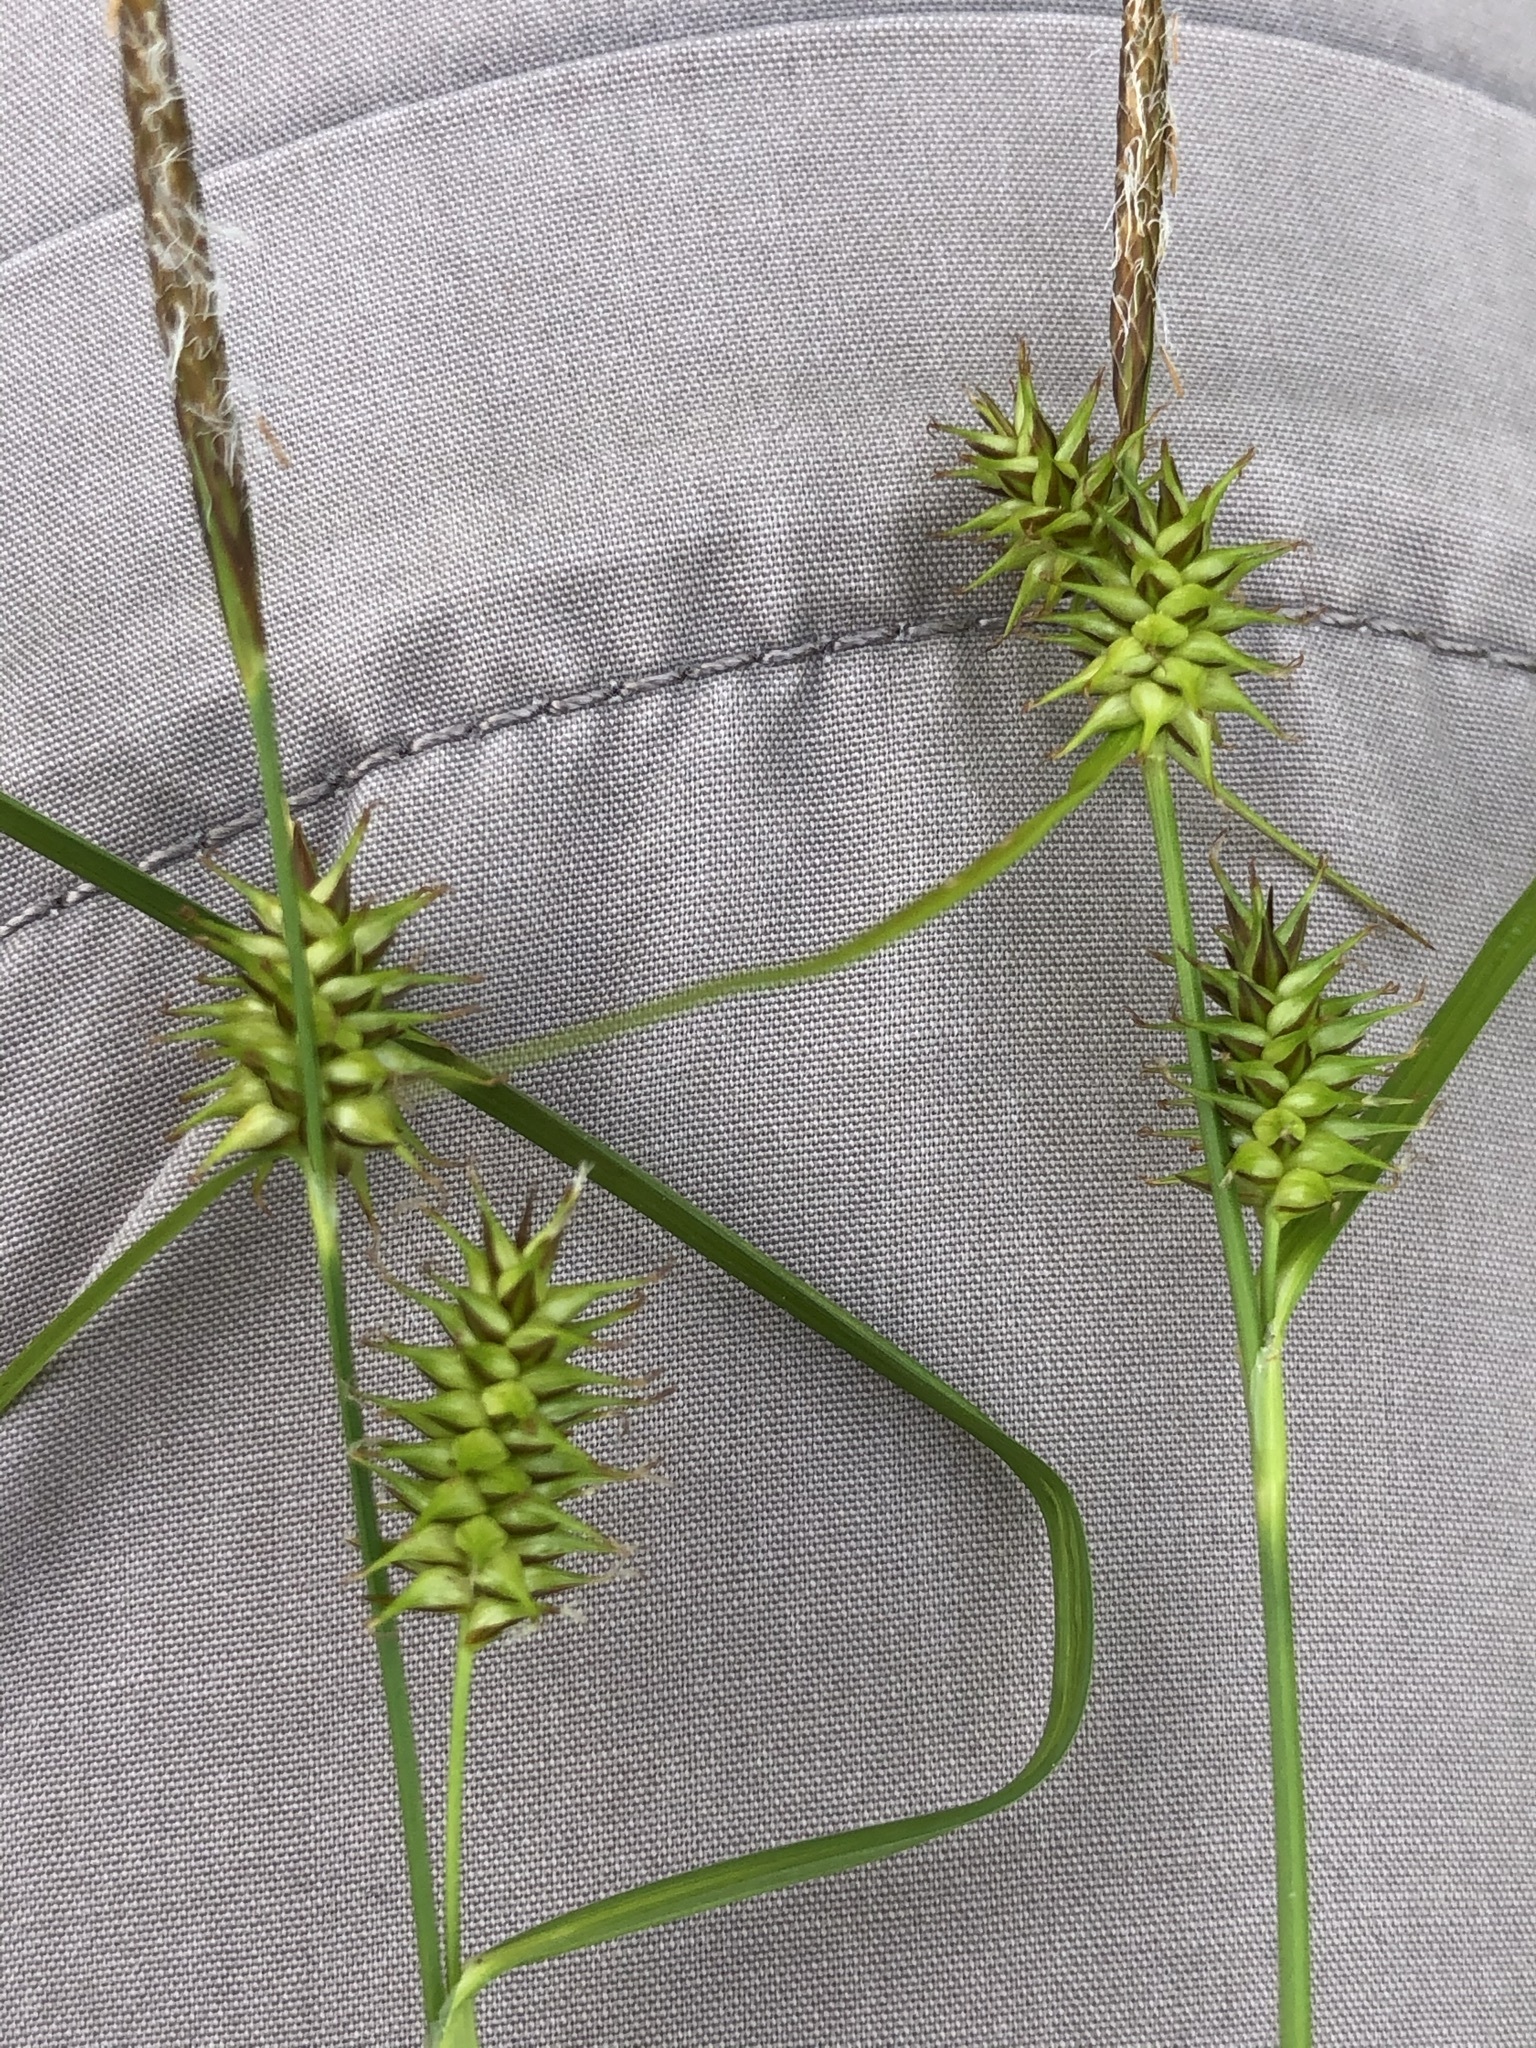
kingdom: Plantae
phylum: Tracheophyta
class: Liliopsida
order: Poales
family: Cyperaceae
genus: Carex
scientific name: Carex lepidocarpa
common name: Long-stalked yellow-sedge
